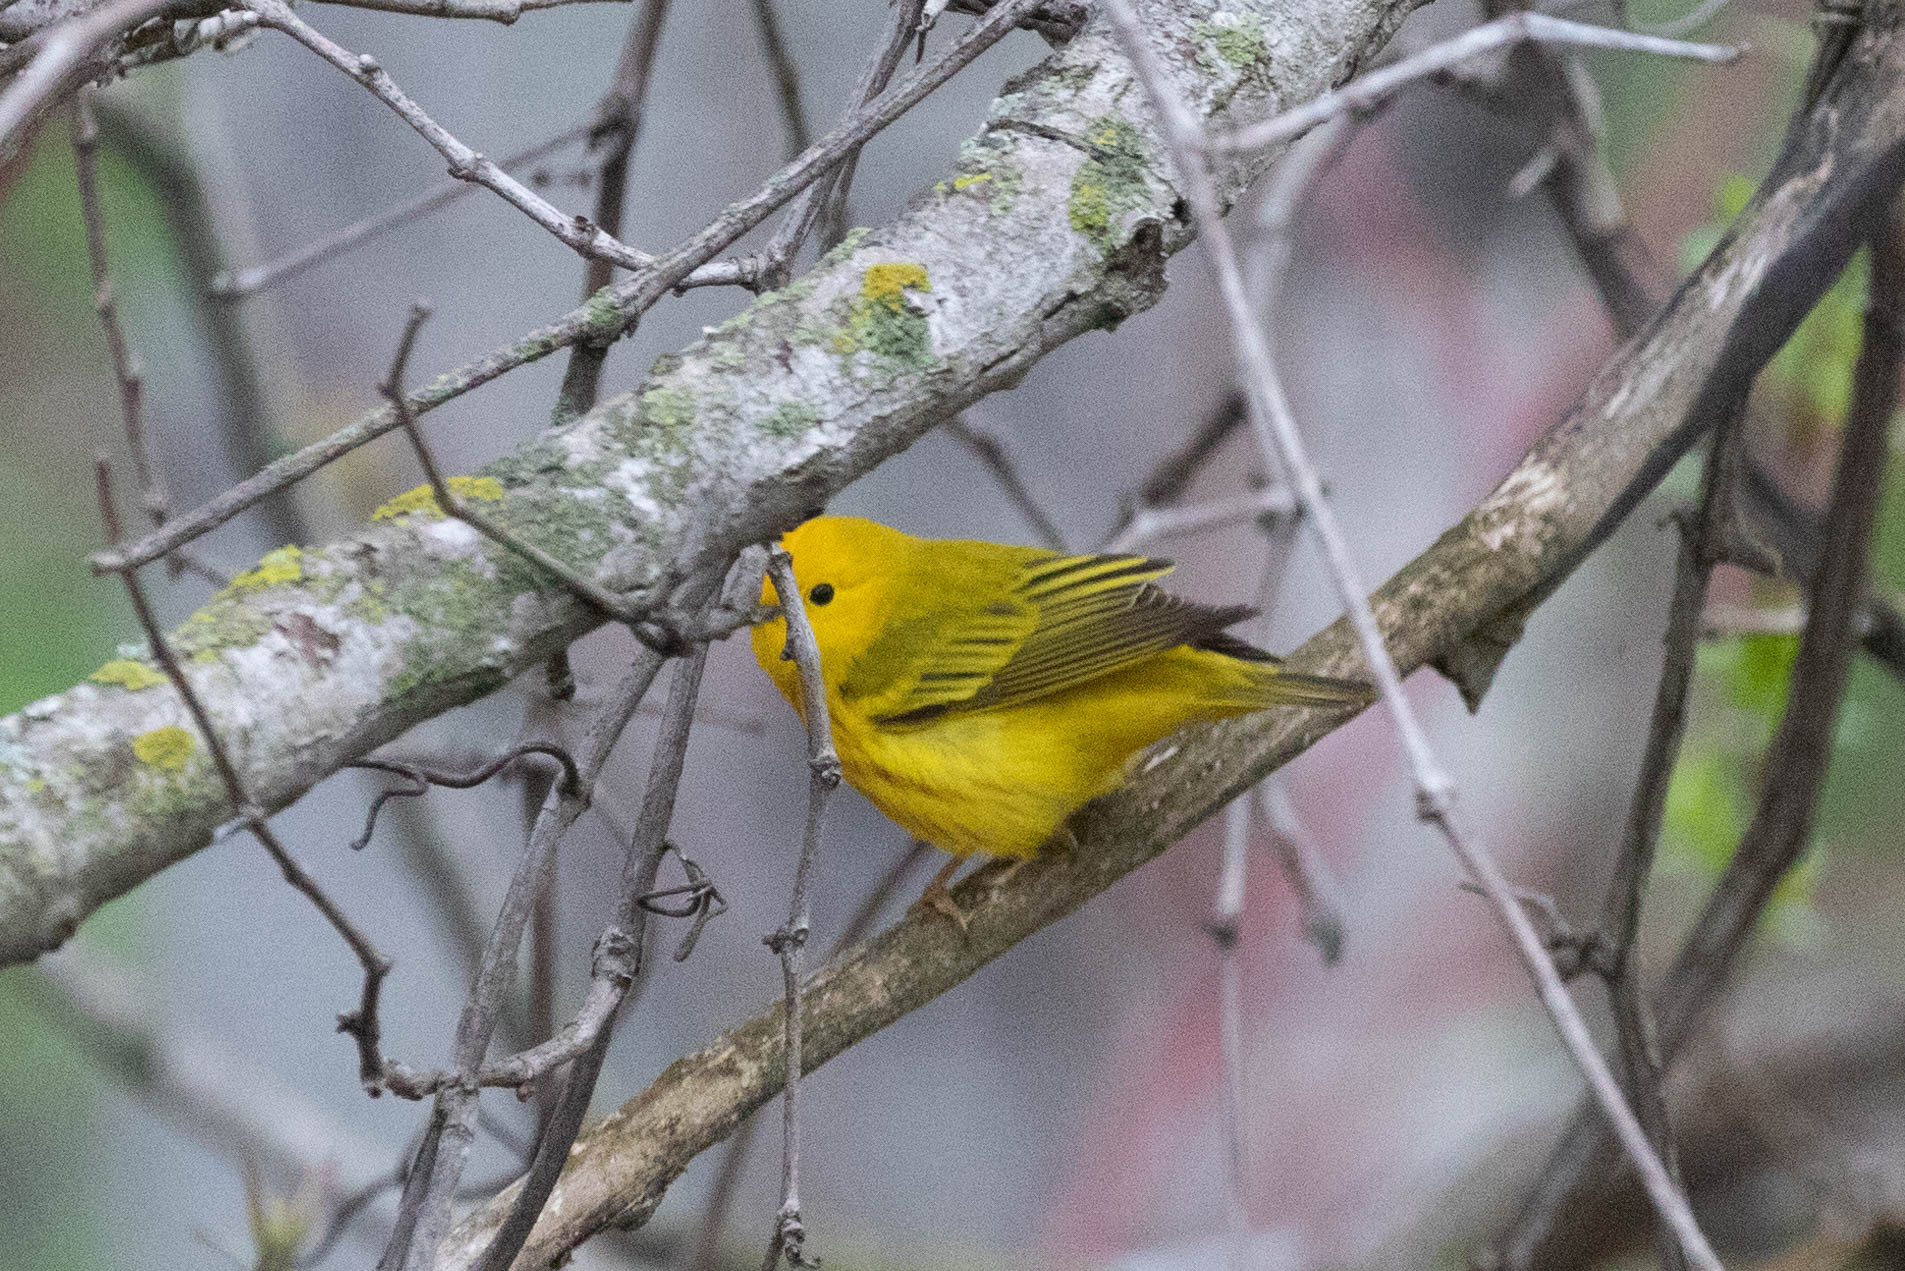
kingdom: Animalia
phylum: Chordata
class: Aves
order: Passeriformes
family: Parulidae
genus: Setophaga
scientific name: Setophaga petechia
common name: Yellow warbler
